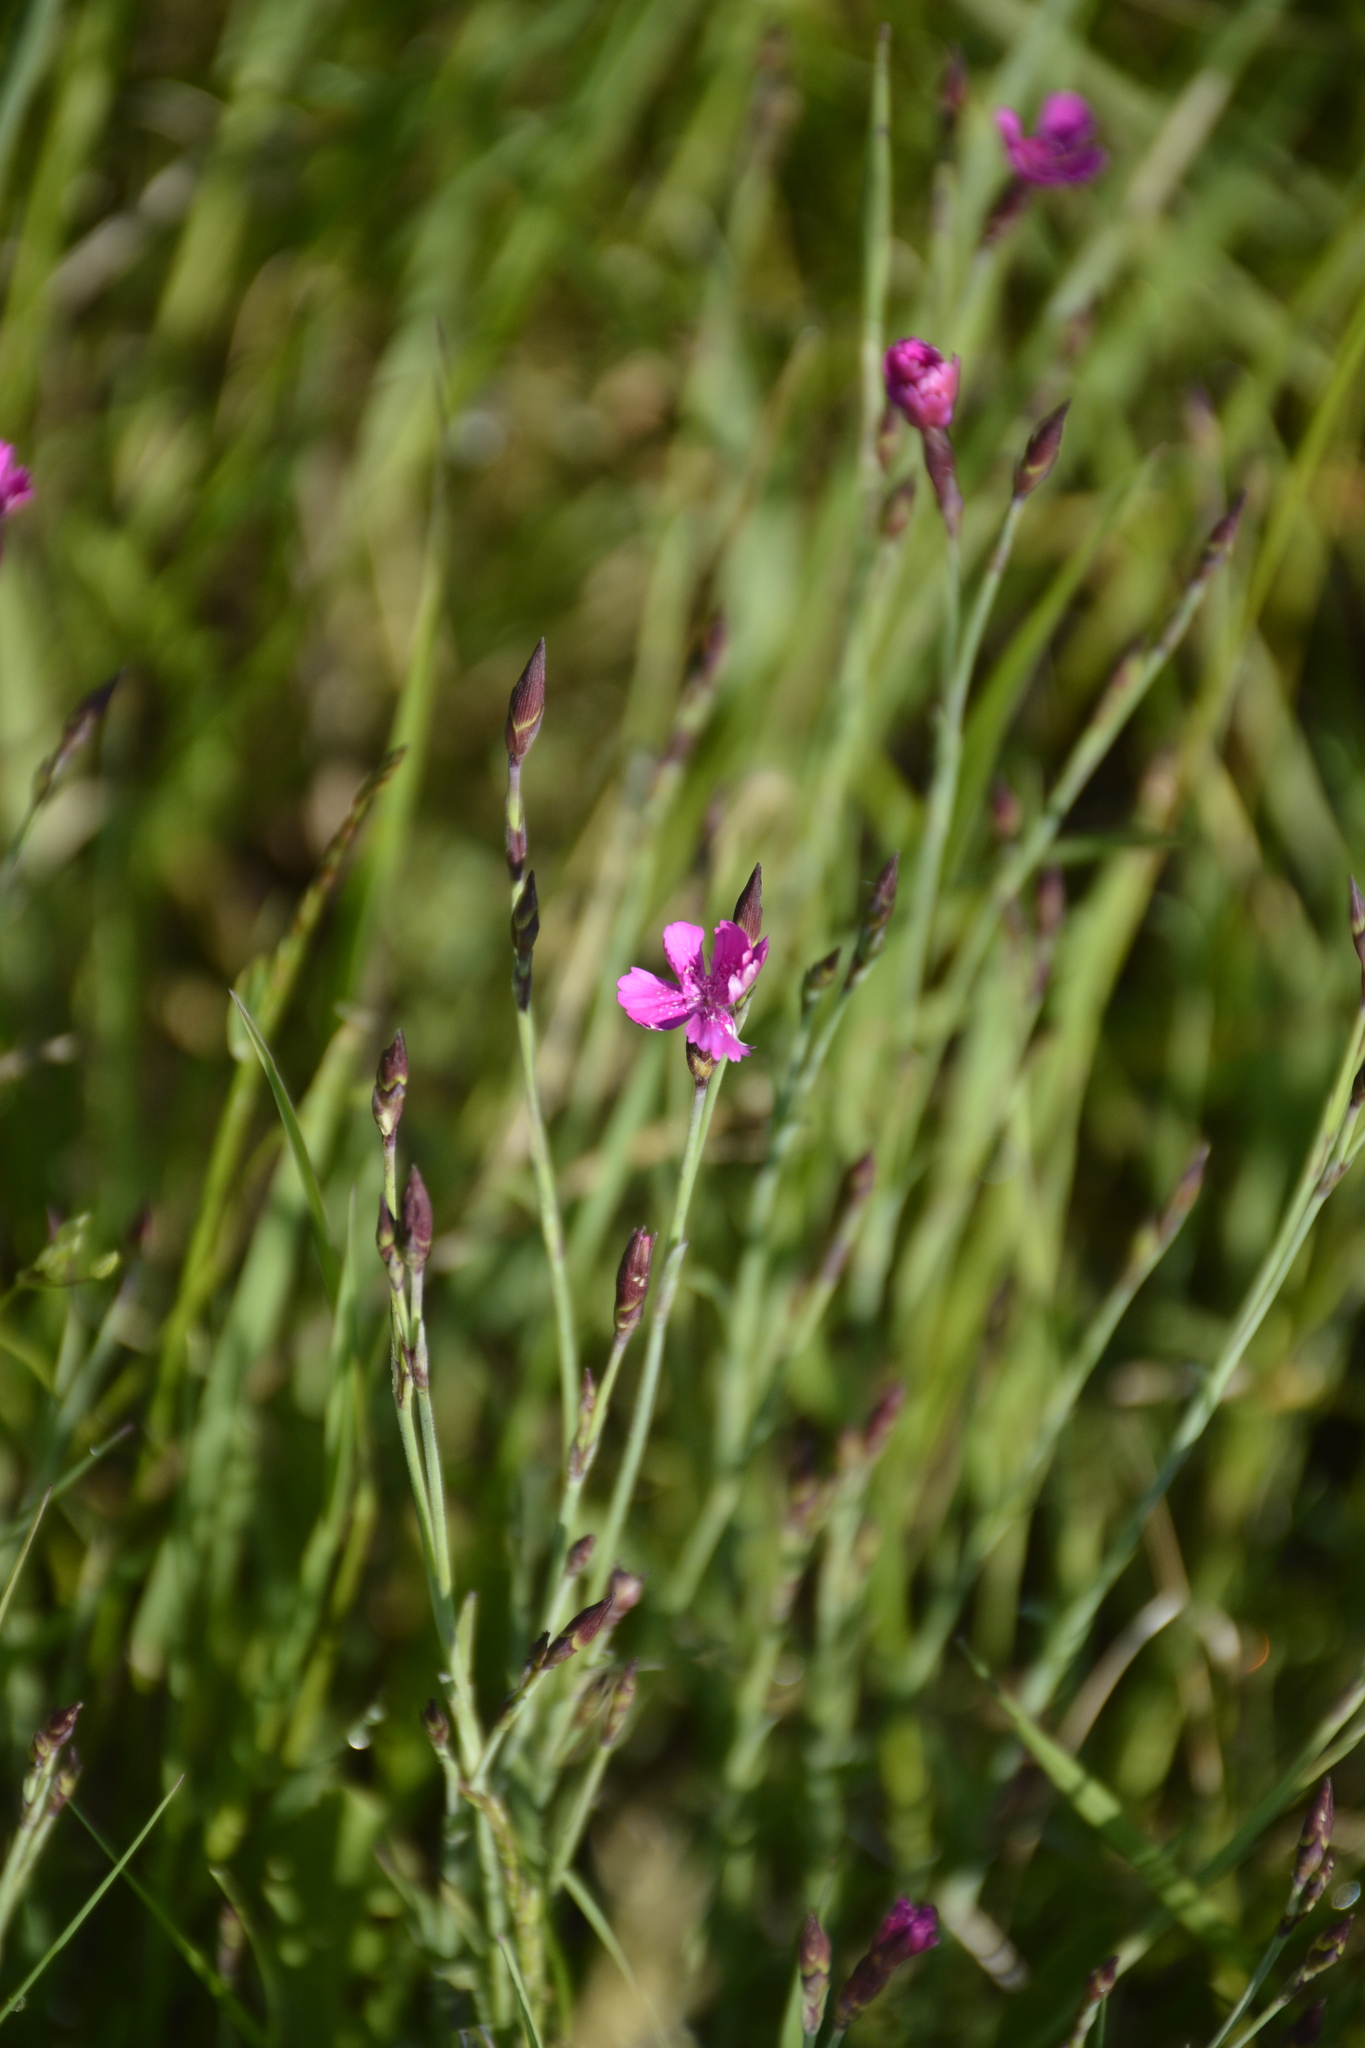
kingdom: Plantae
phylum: Tracheophyta
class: Magnoliopsida
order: Caryophyllales
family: Caryophyllaceae
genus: Dianthus
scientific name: Dianthus deltoides
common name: Maiden pink
